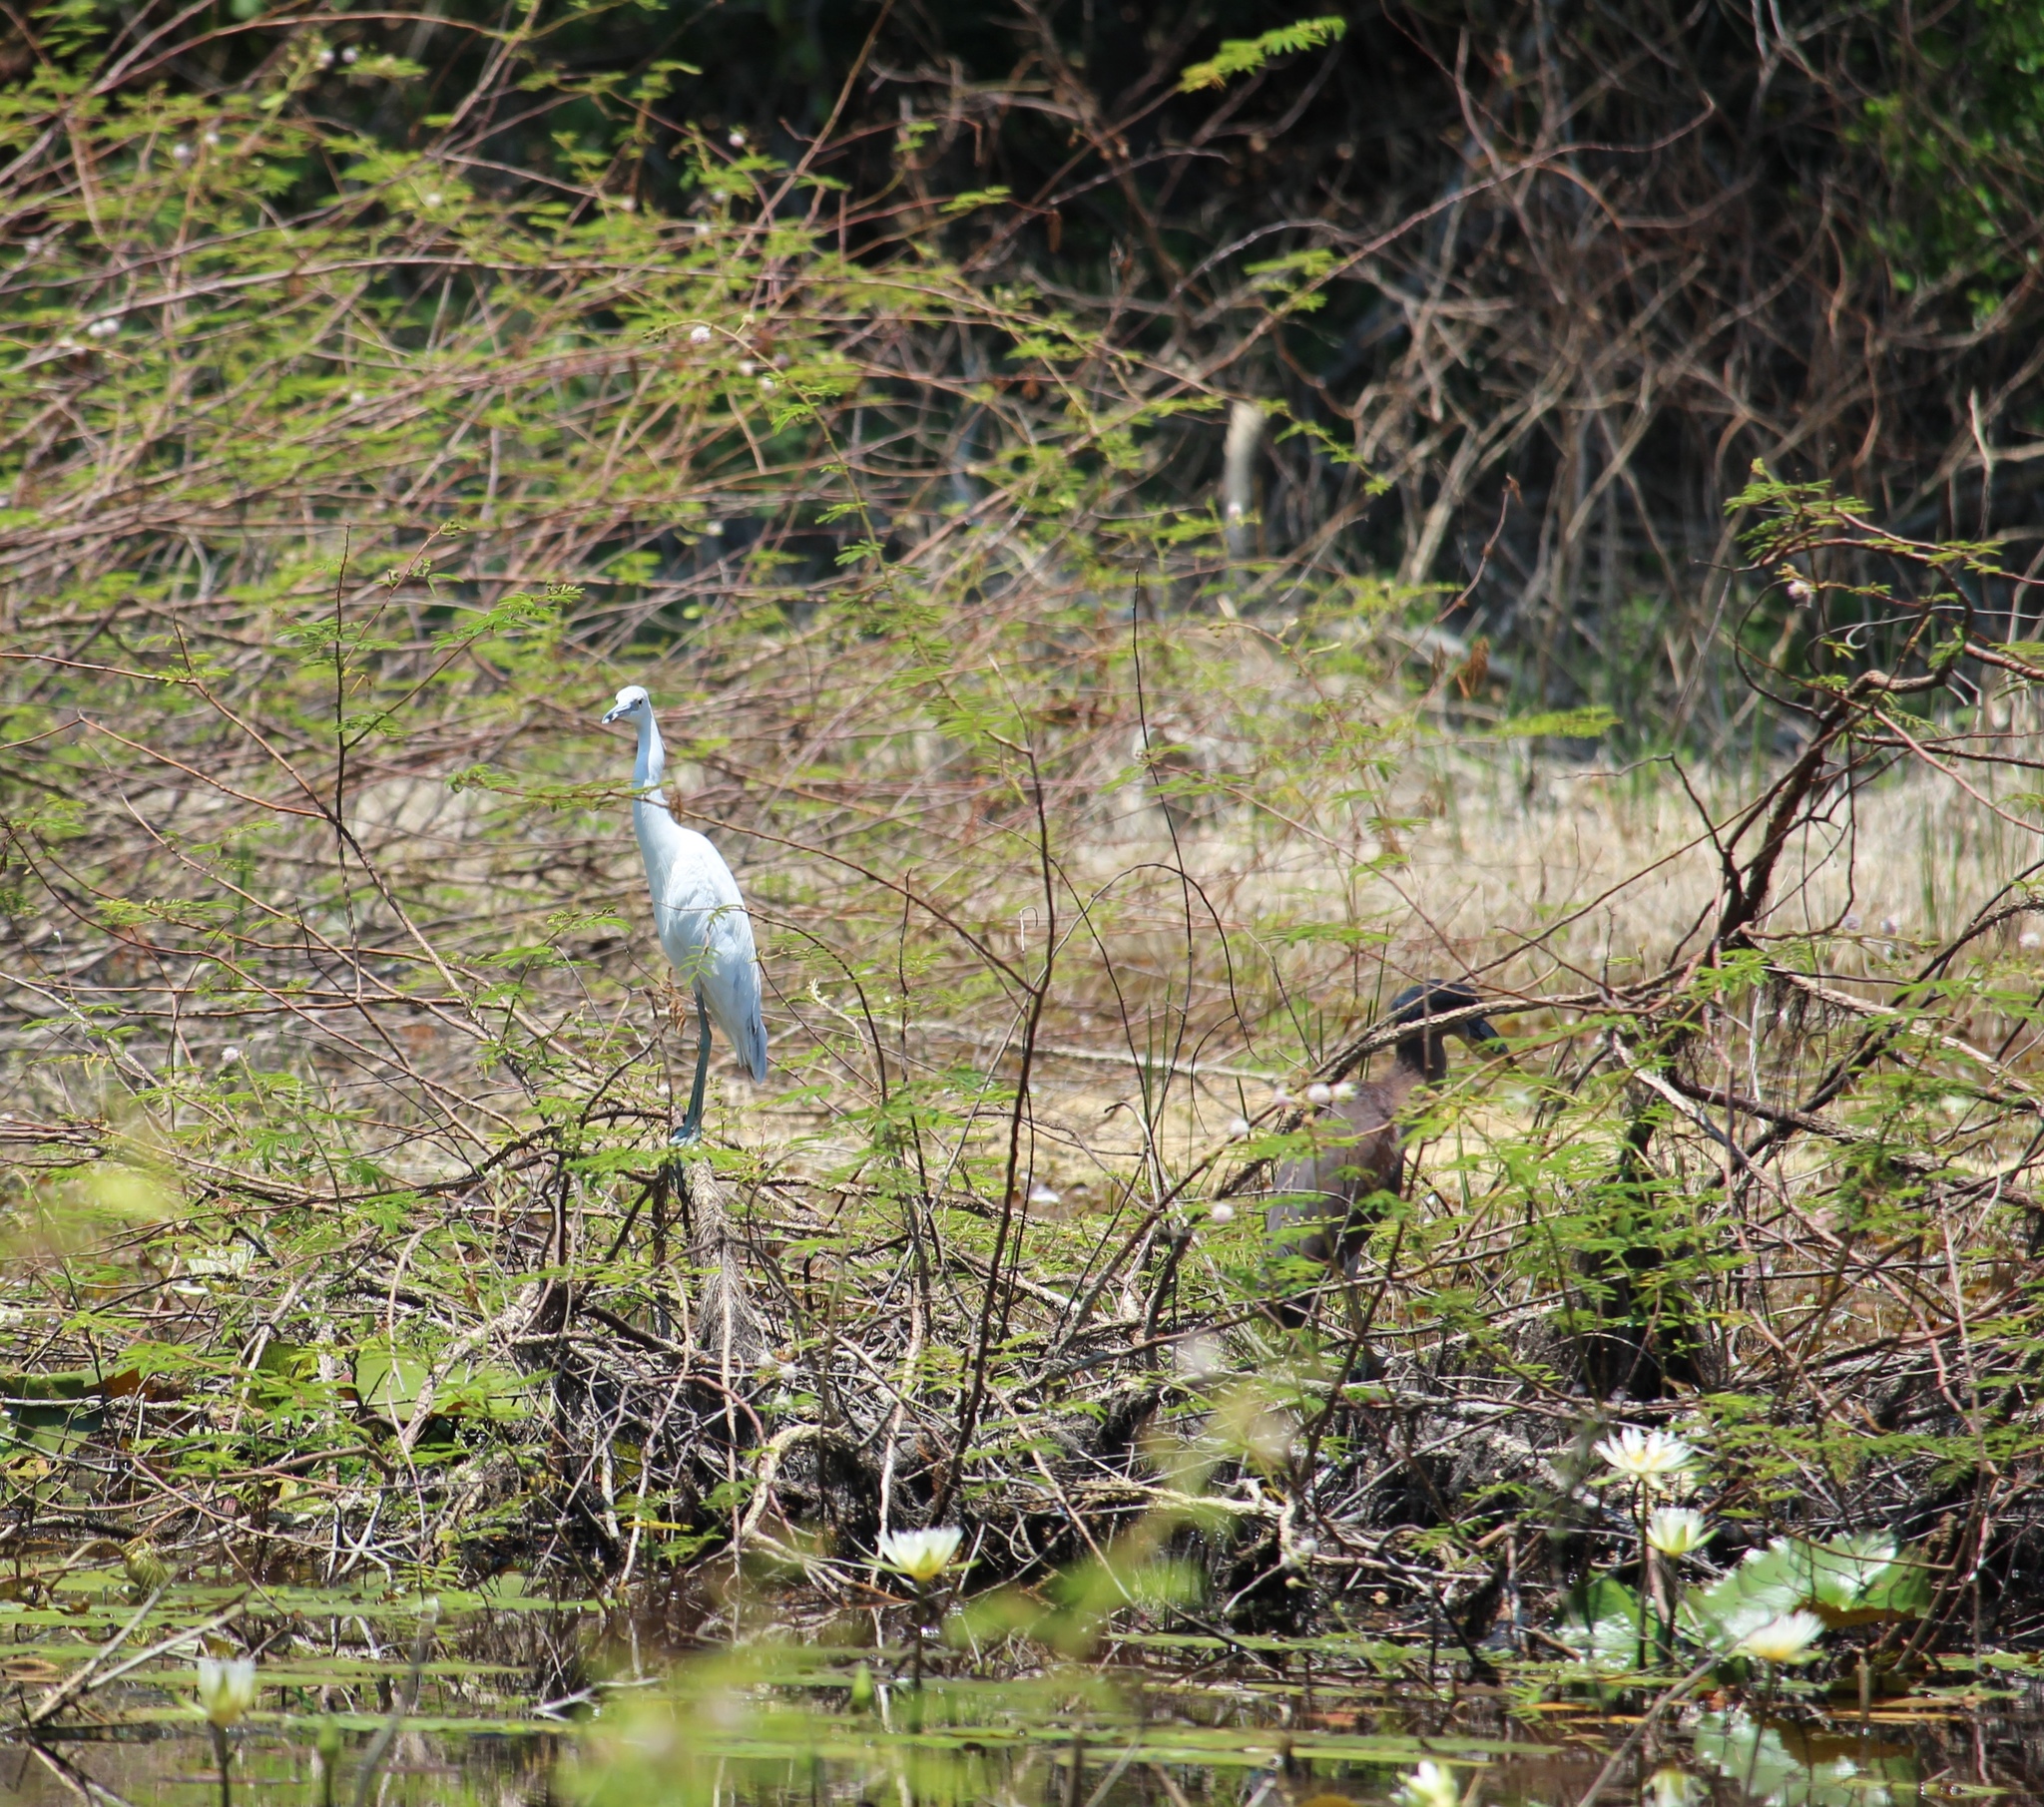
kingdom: Animalia
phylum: Chordata
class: Aves
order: Pelecaniformes
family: Ardeidae
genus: Egretta
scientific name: Egretta caerulea
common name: Little blue heron
